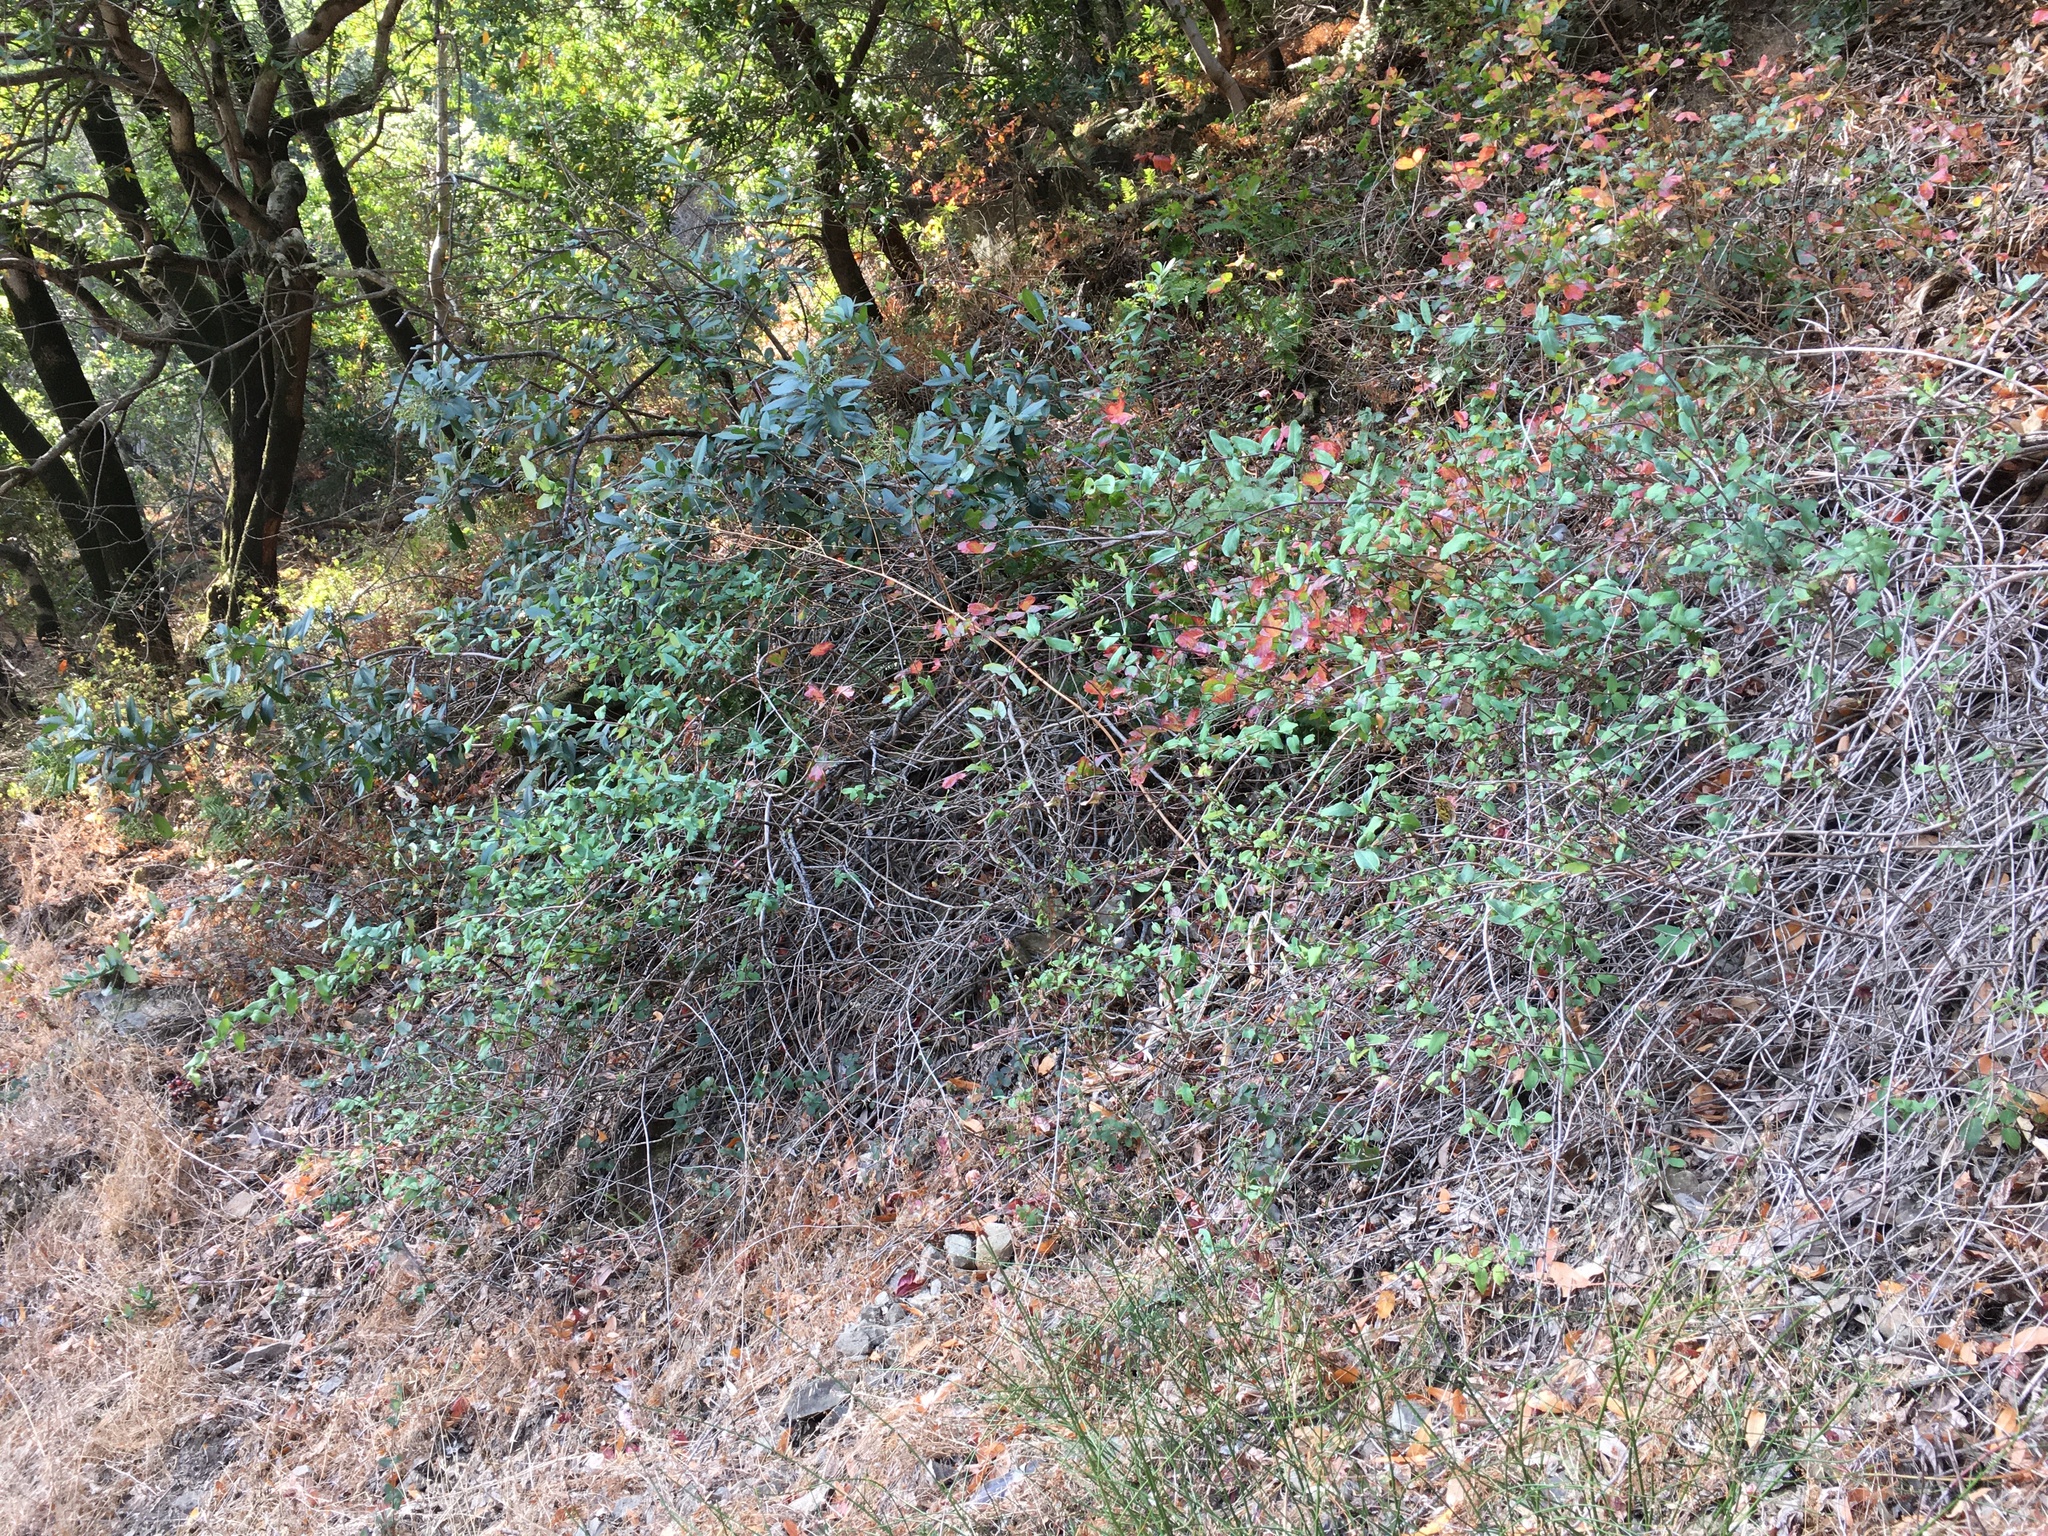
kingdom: Plantae
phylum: Tracheophyta
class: Magnoliopsida
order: Dipsacales
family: Caprifoliaceae
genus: Lonicera
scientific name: Lonicera hispidula
